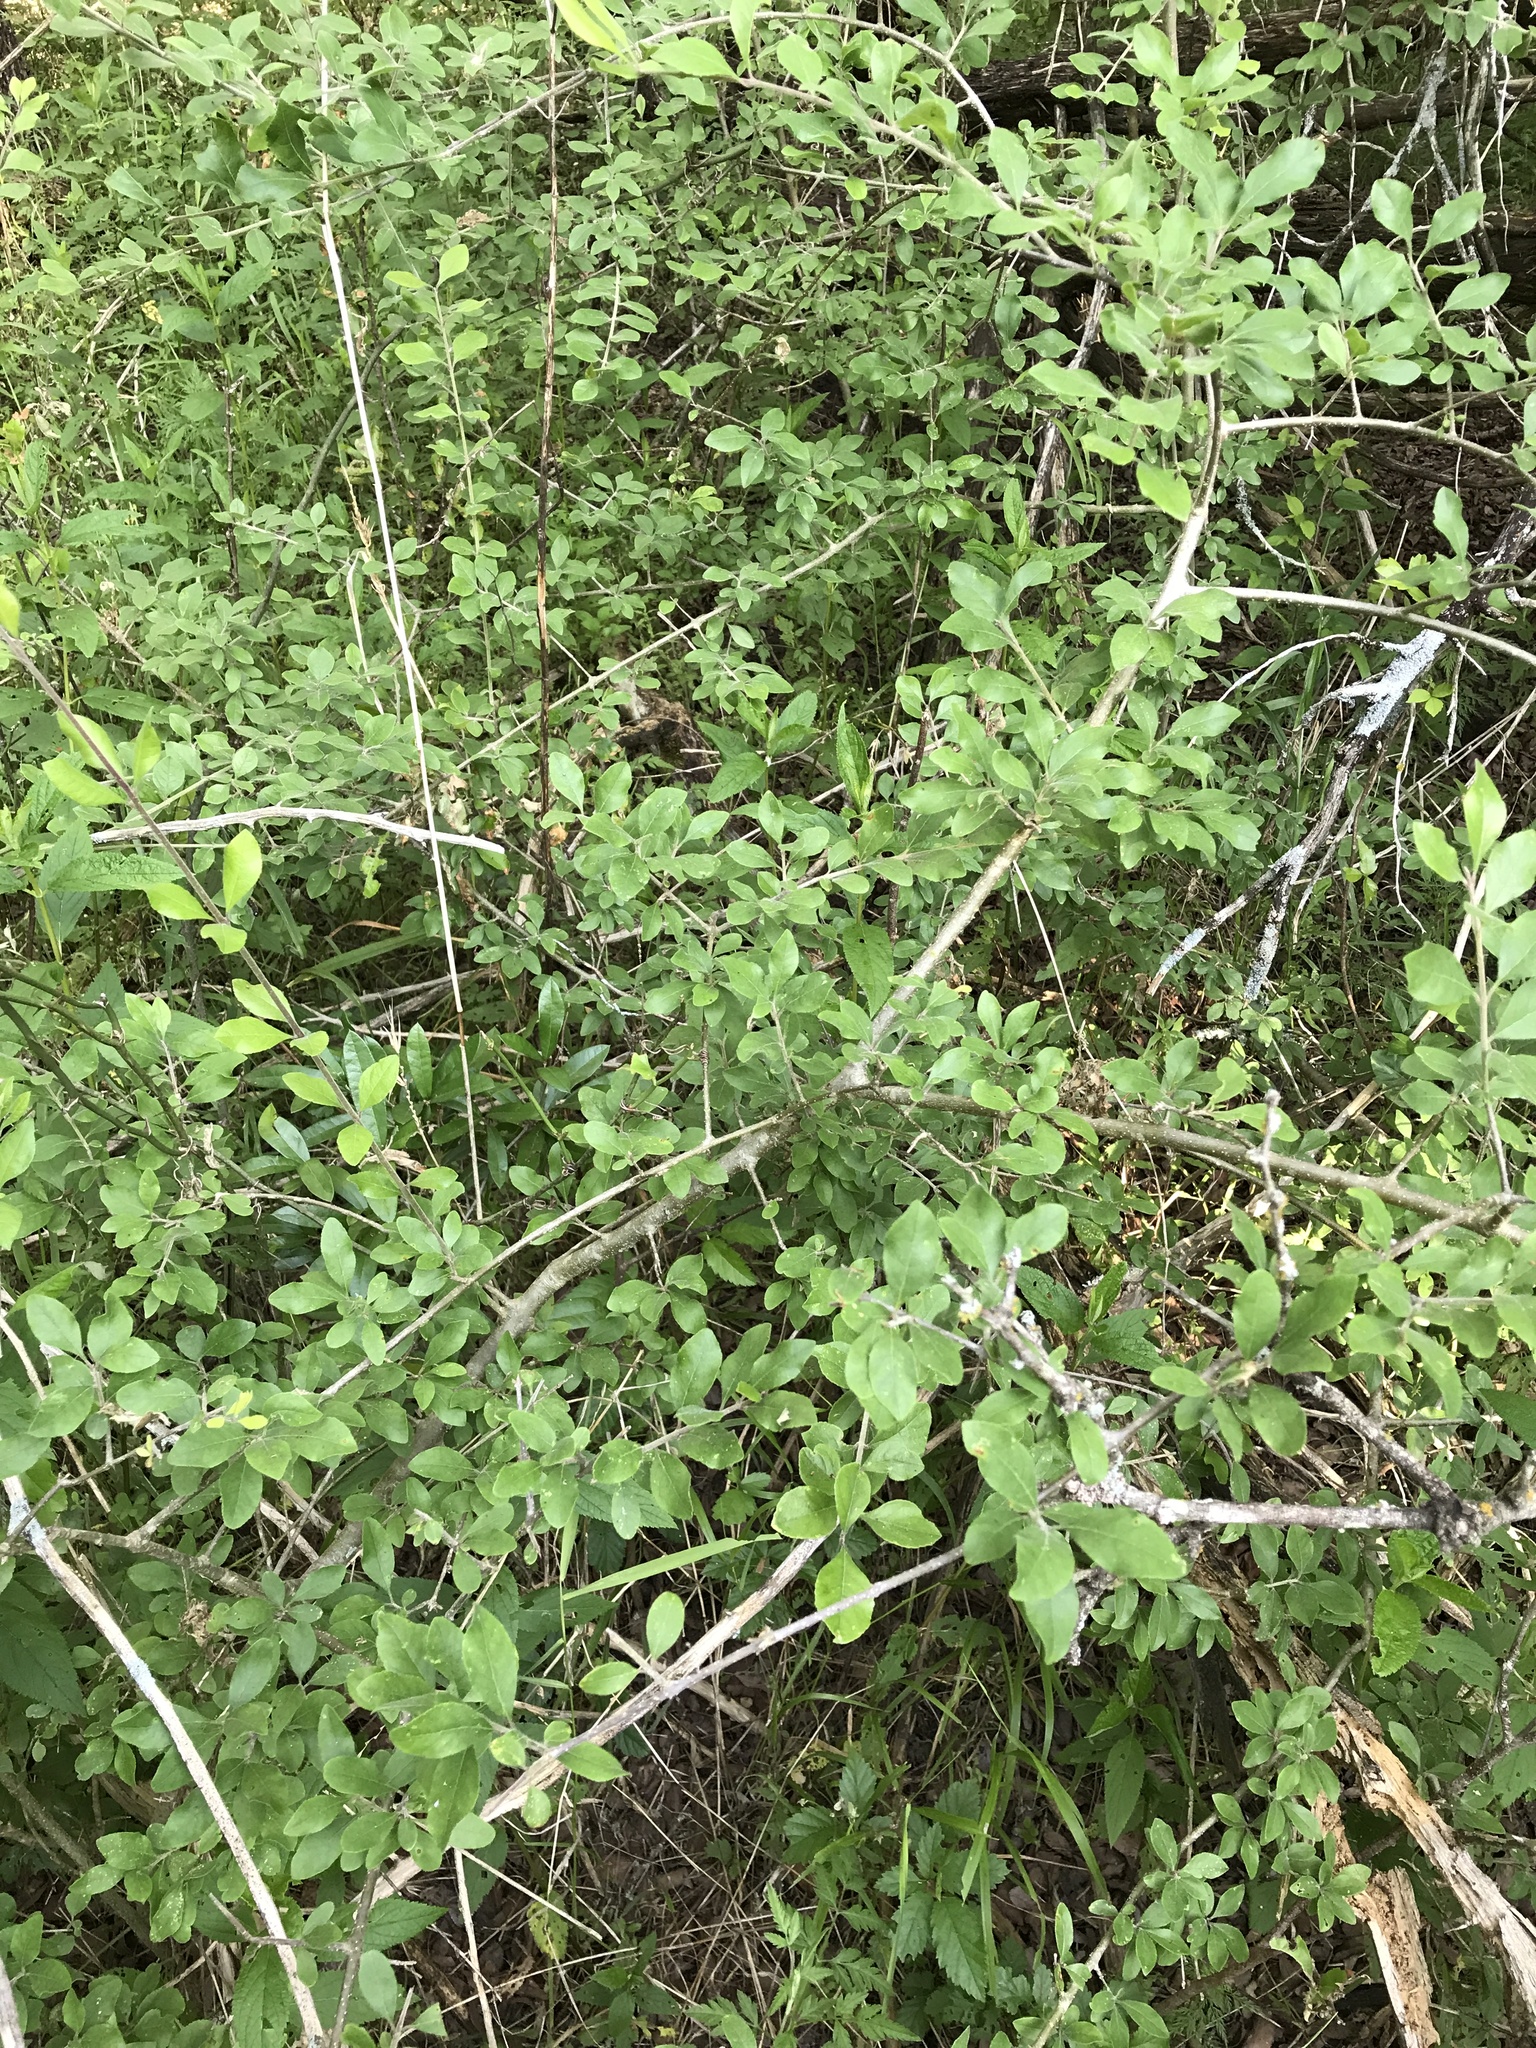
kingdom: Plantae
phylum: Tracheophyta
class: Magnoliopsida
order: Lamiales
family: Oleaceae
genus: Forestiera
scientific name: Forestiera pubescens
